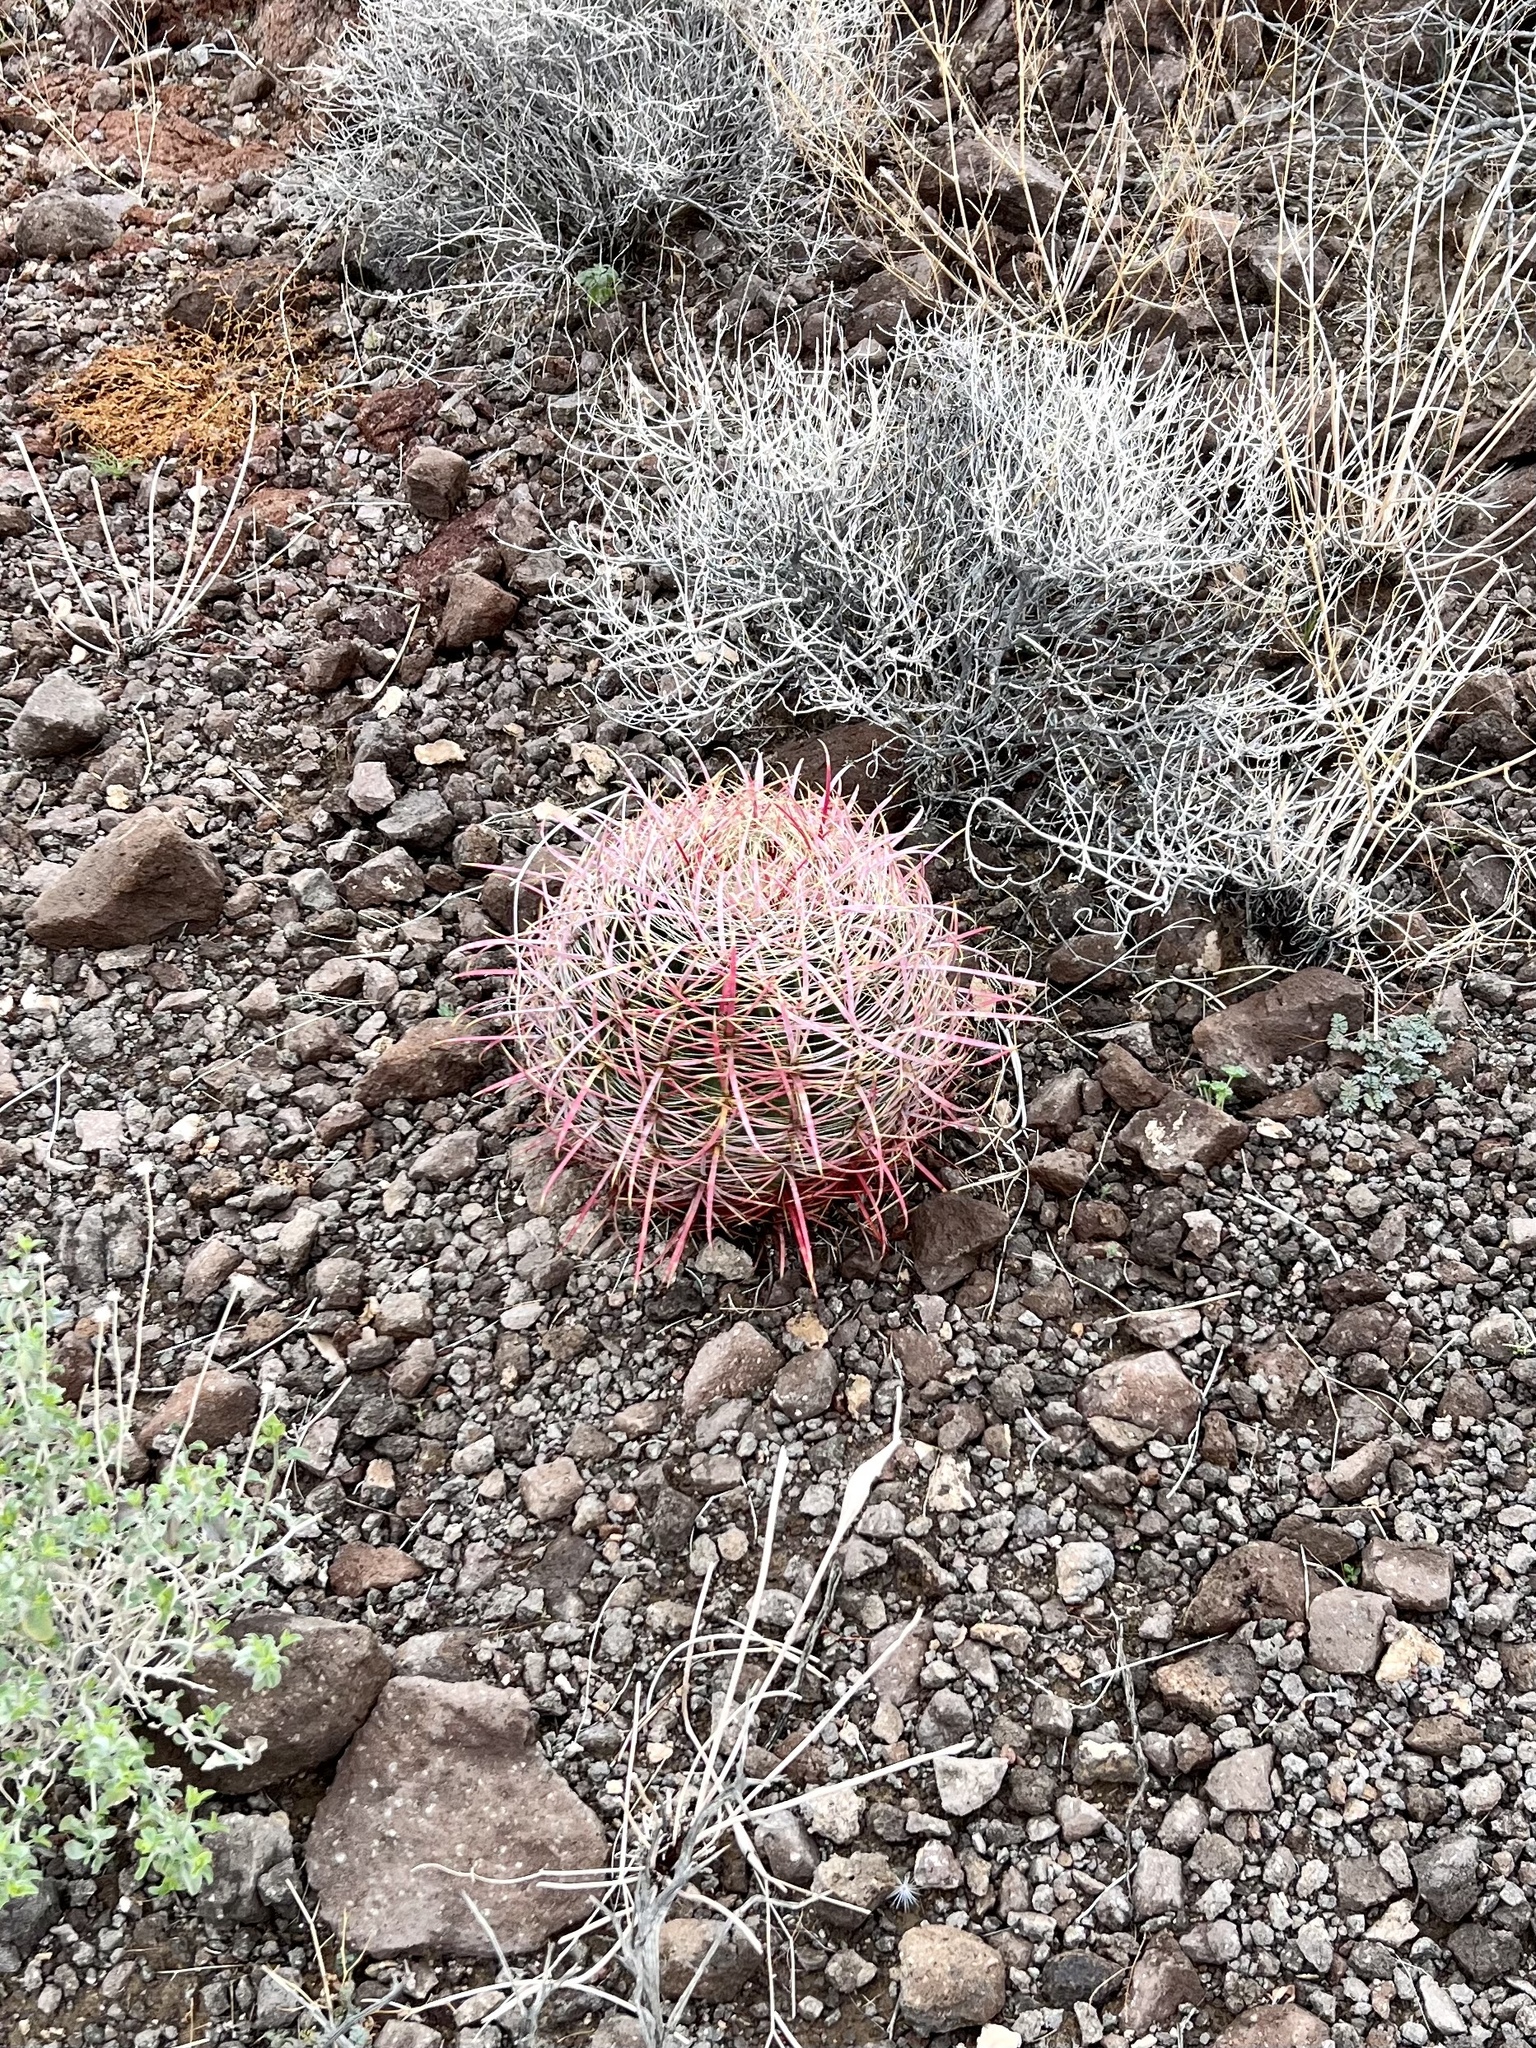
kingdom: Plantae
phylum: Tracheophyta
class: Magnoliopsida
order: Caryophyllales
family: Cactaceae
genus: Ferocactus
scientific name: Ferocactus cylindraceus
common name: California barrel cactus
